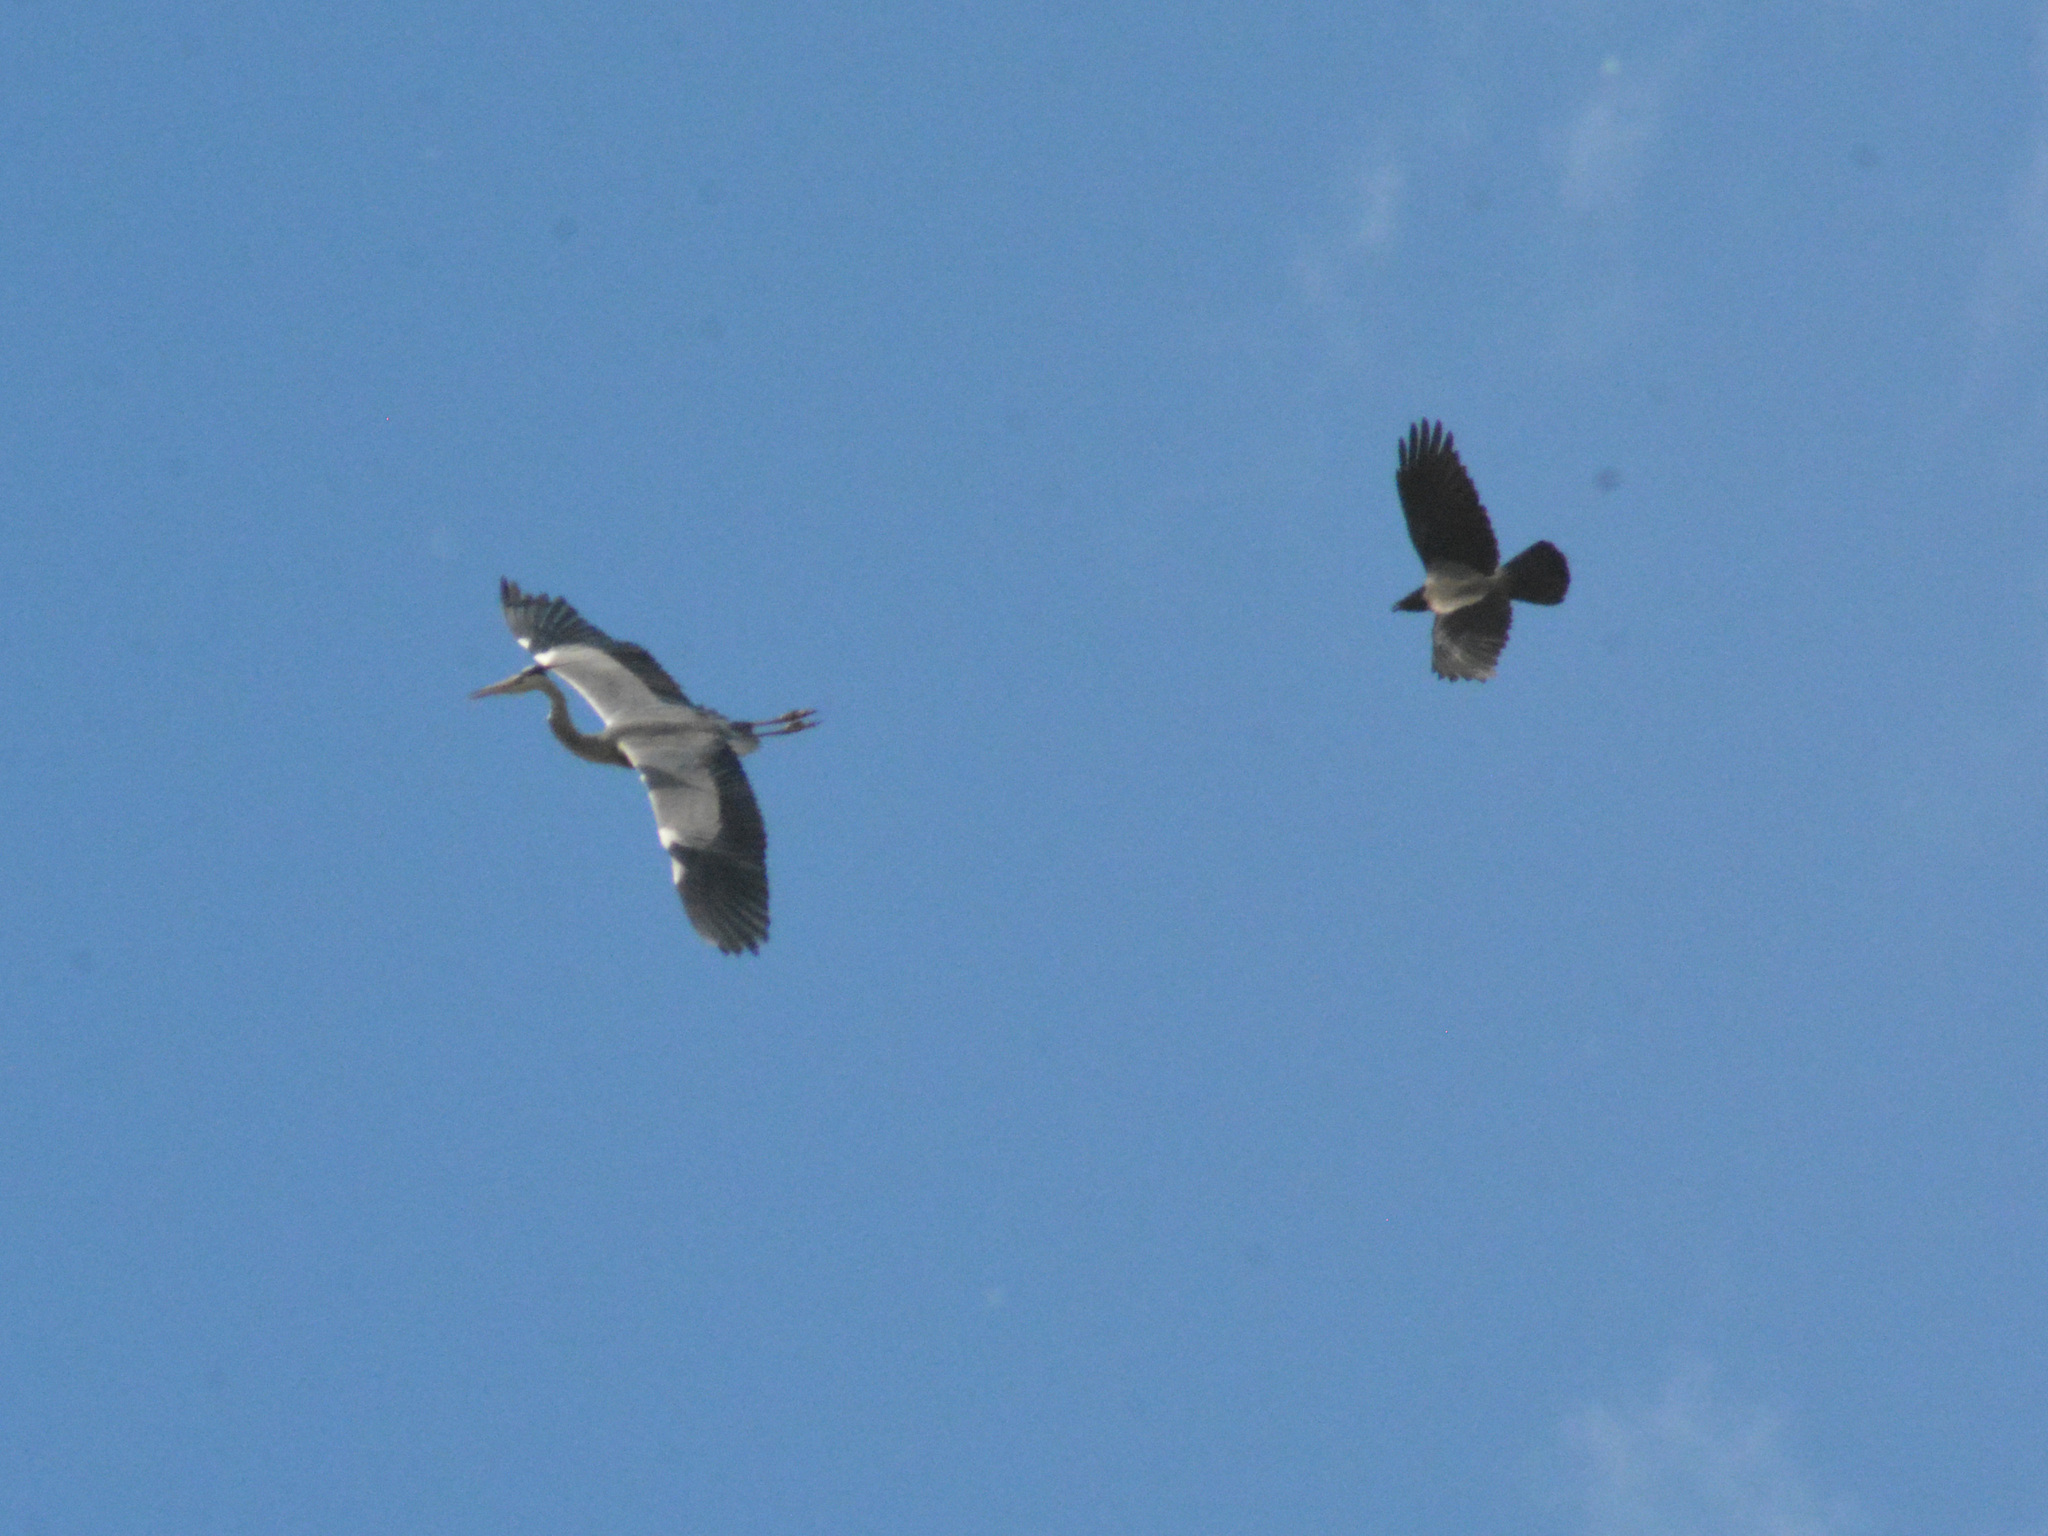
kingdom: Animalia
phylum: Chordata
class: Aves
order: Pelecaniformes
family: Ardeidae
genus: Ardea
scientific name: Ardea cinerea
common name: Grey heron
